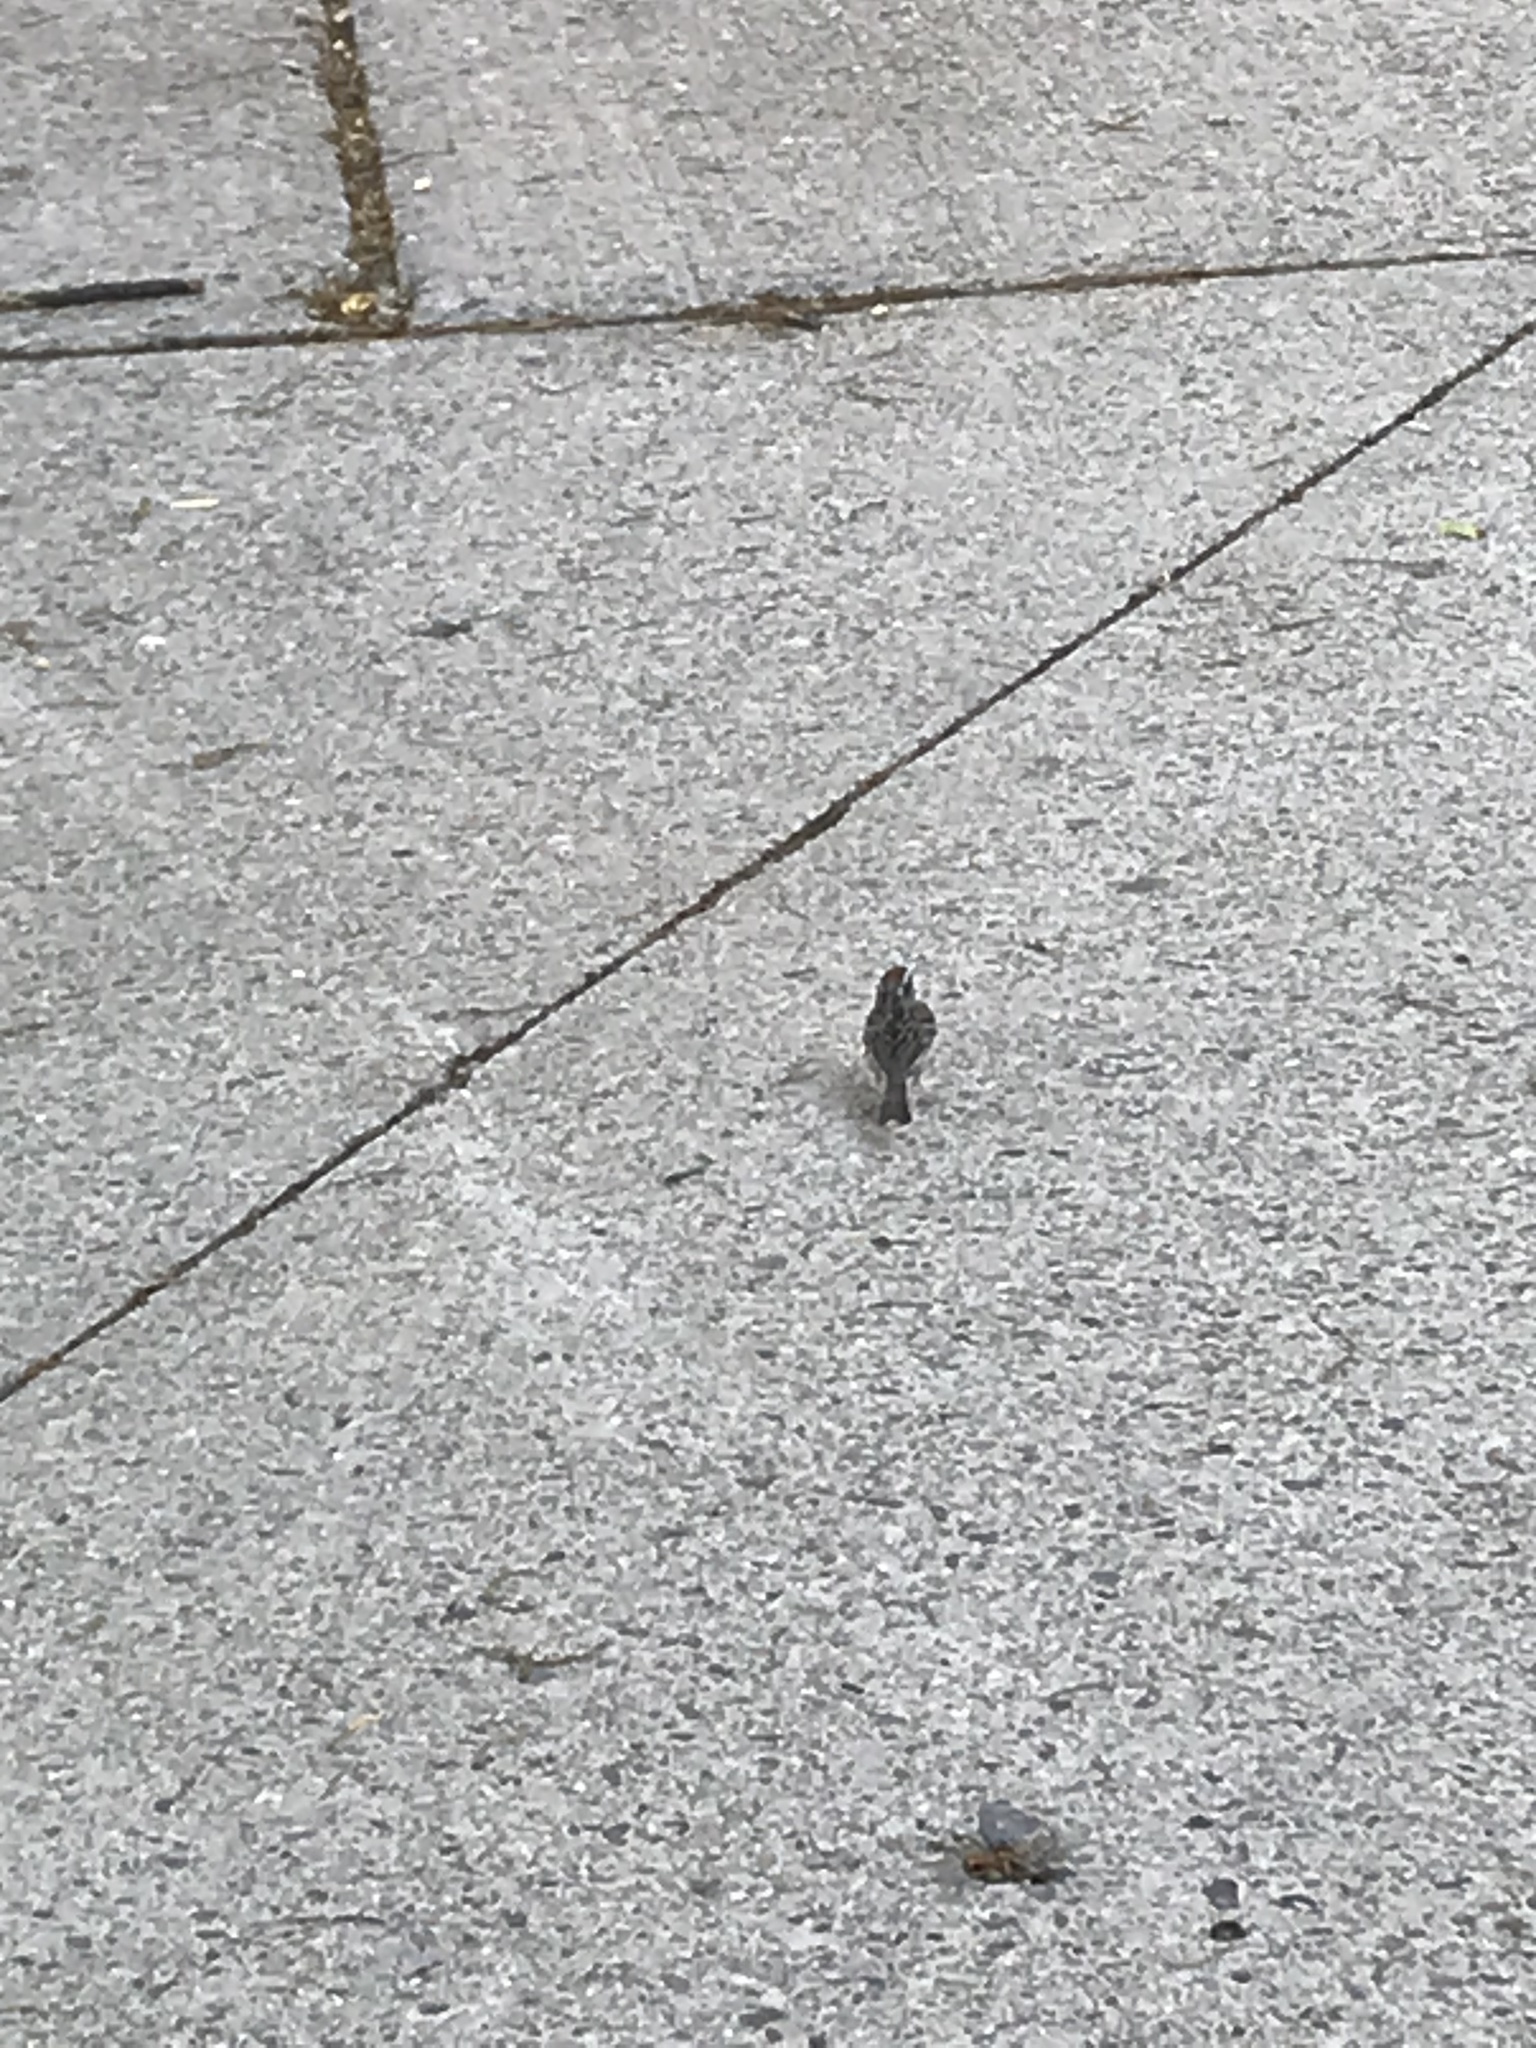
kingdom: Animalia
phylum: Chordata
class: Aves
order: Passeriformes
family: Passerellidae
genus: Spizella
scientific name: Spizella passerina
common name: Chipping sparrow
